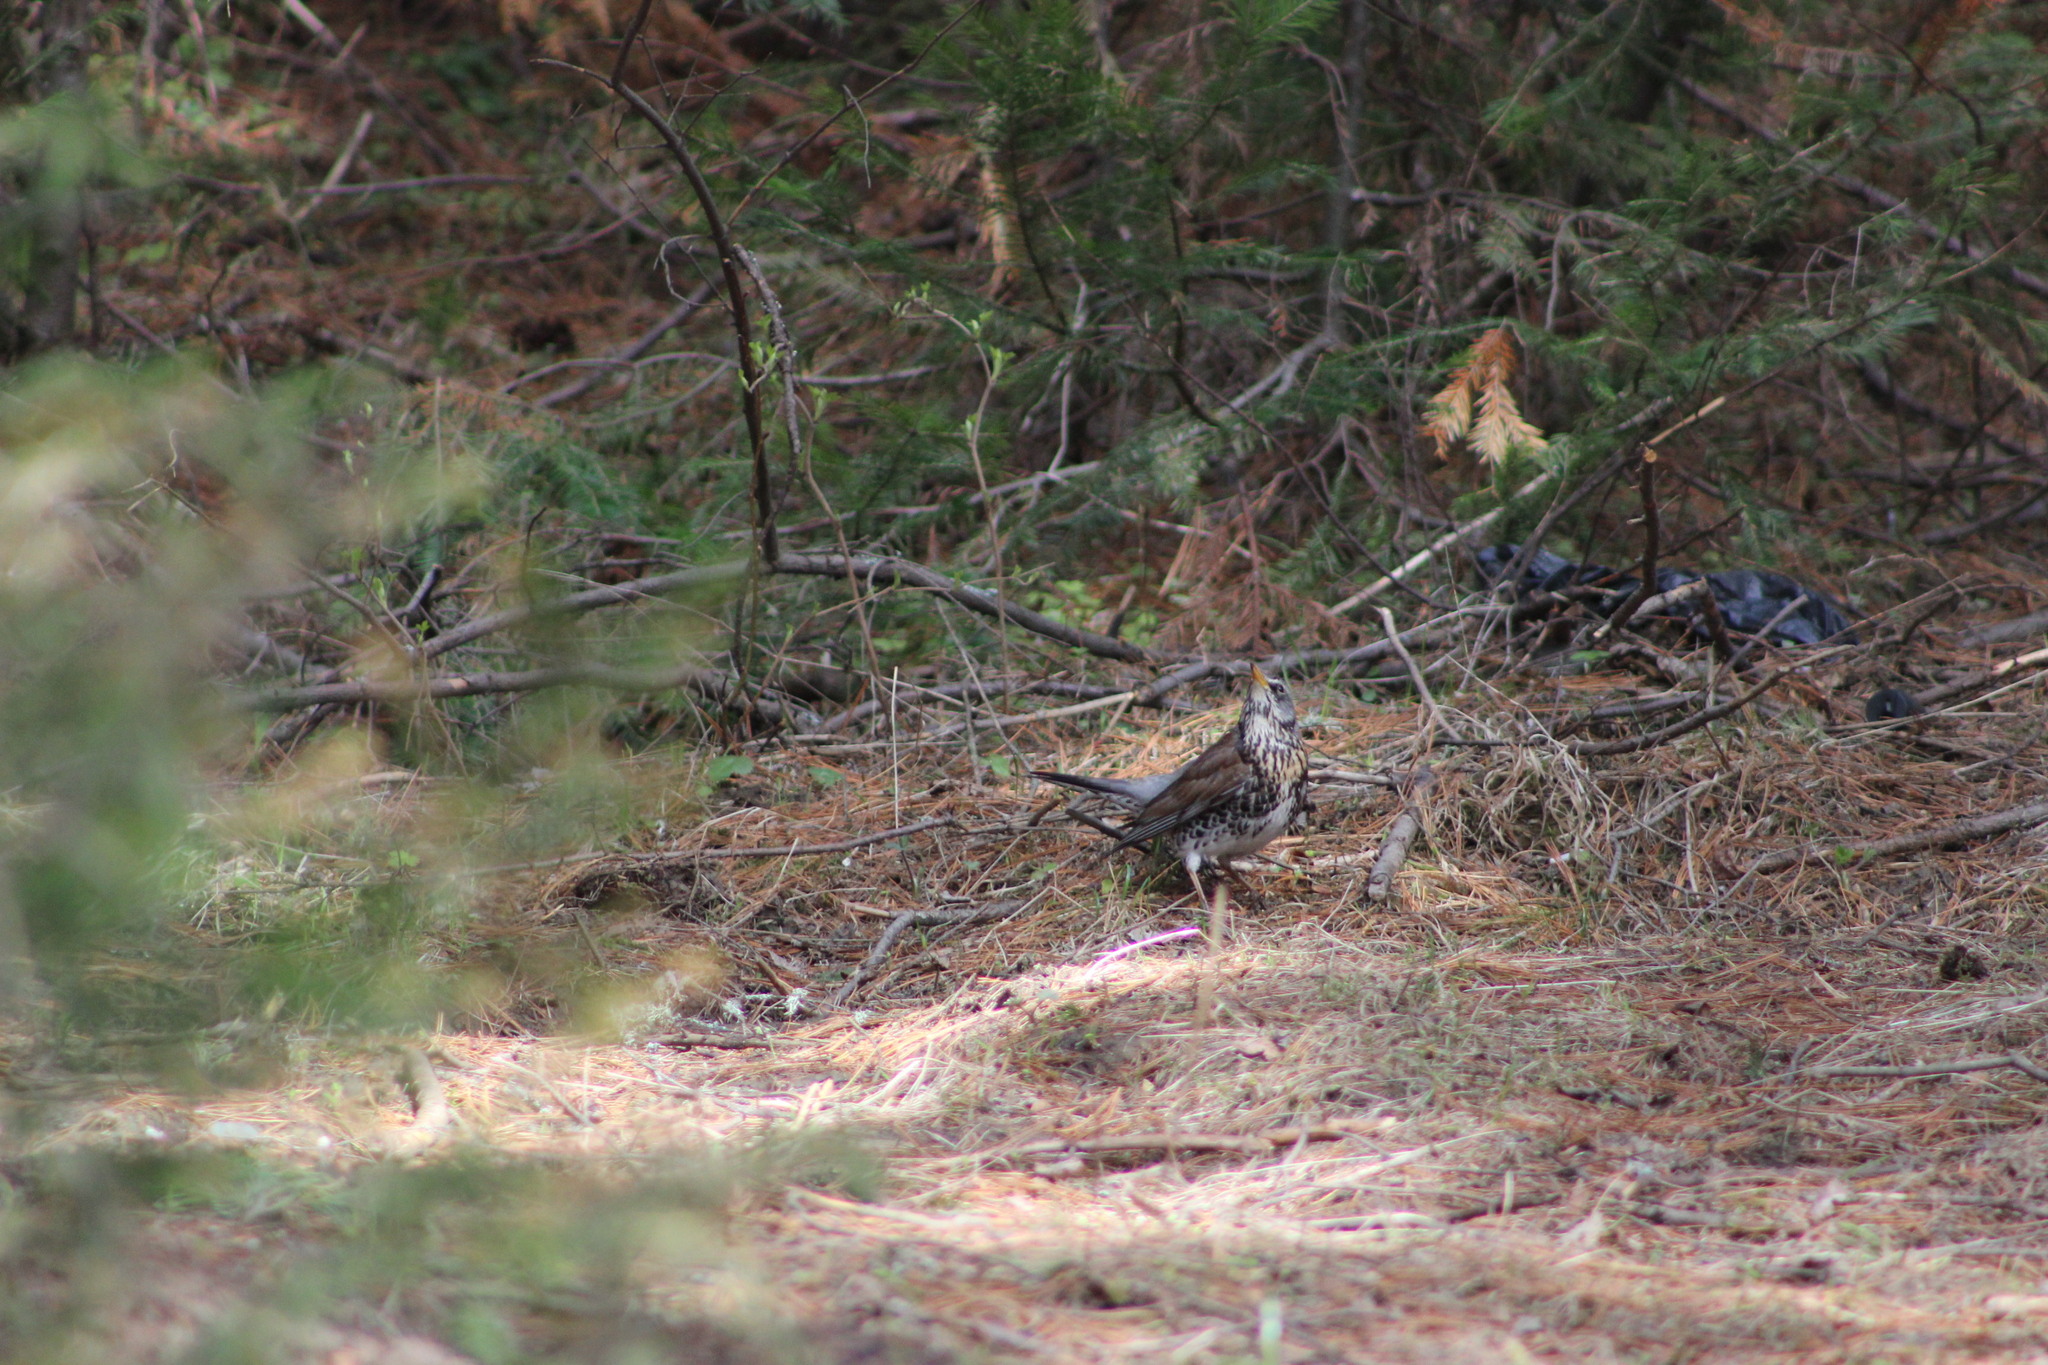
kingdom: Animalia
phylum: Chordata
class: Aves
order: Passeriformes
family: Turdidae
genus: Turdus
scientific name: Turdus pilaris
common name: Fieldfare
